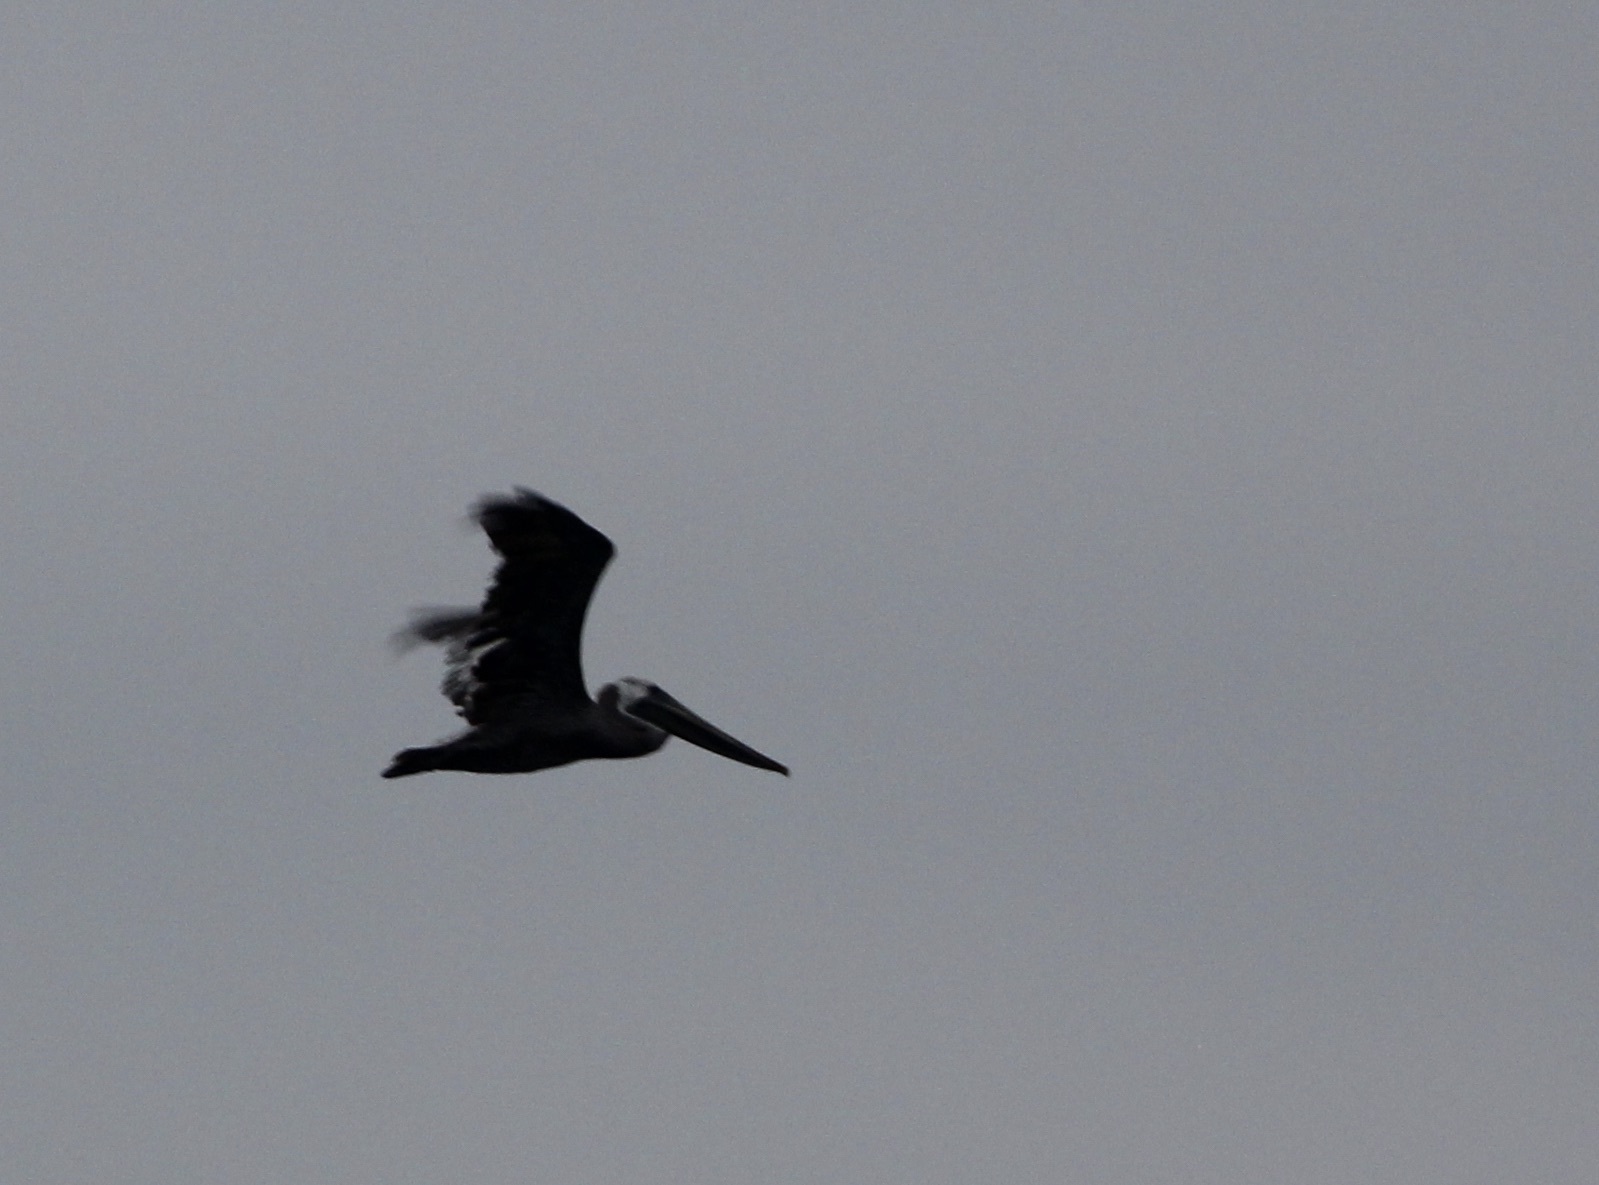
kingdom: Animalia
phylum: Chordata
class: Aves
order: Pelecaniformes
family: Pelecanidae
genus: Pelecanus
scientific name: Pelecanus occidentalis
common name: Brown pelican
